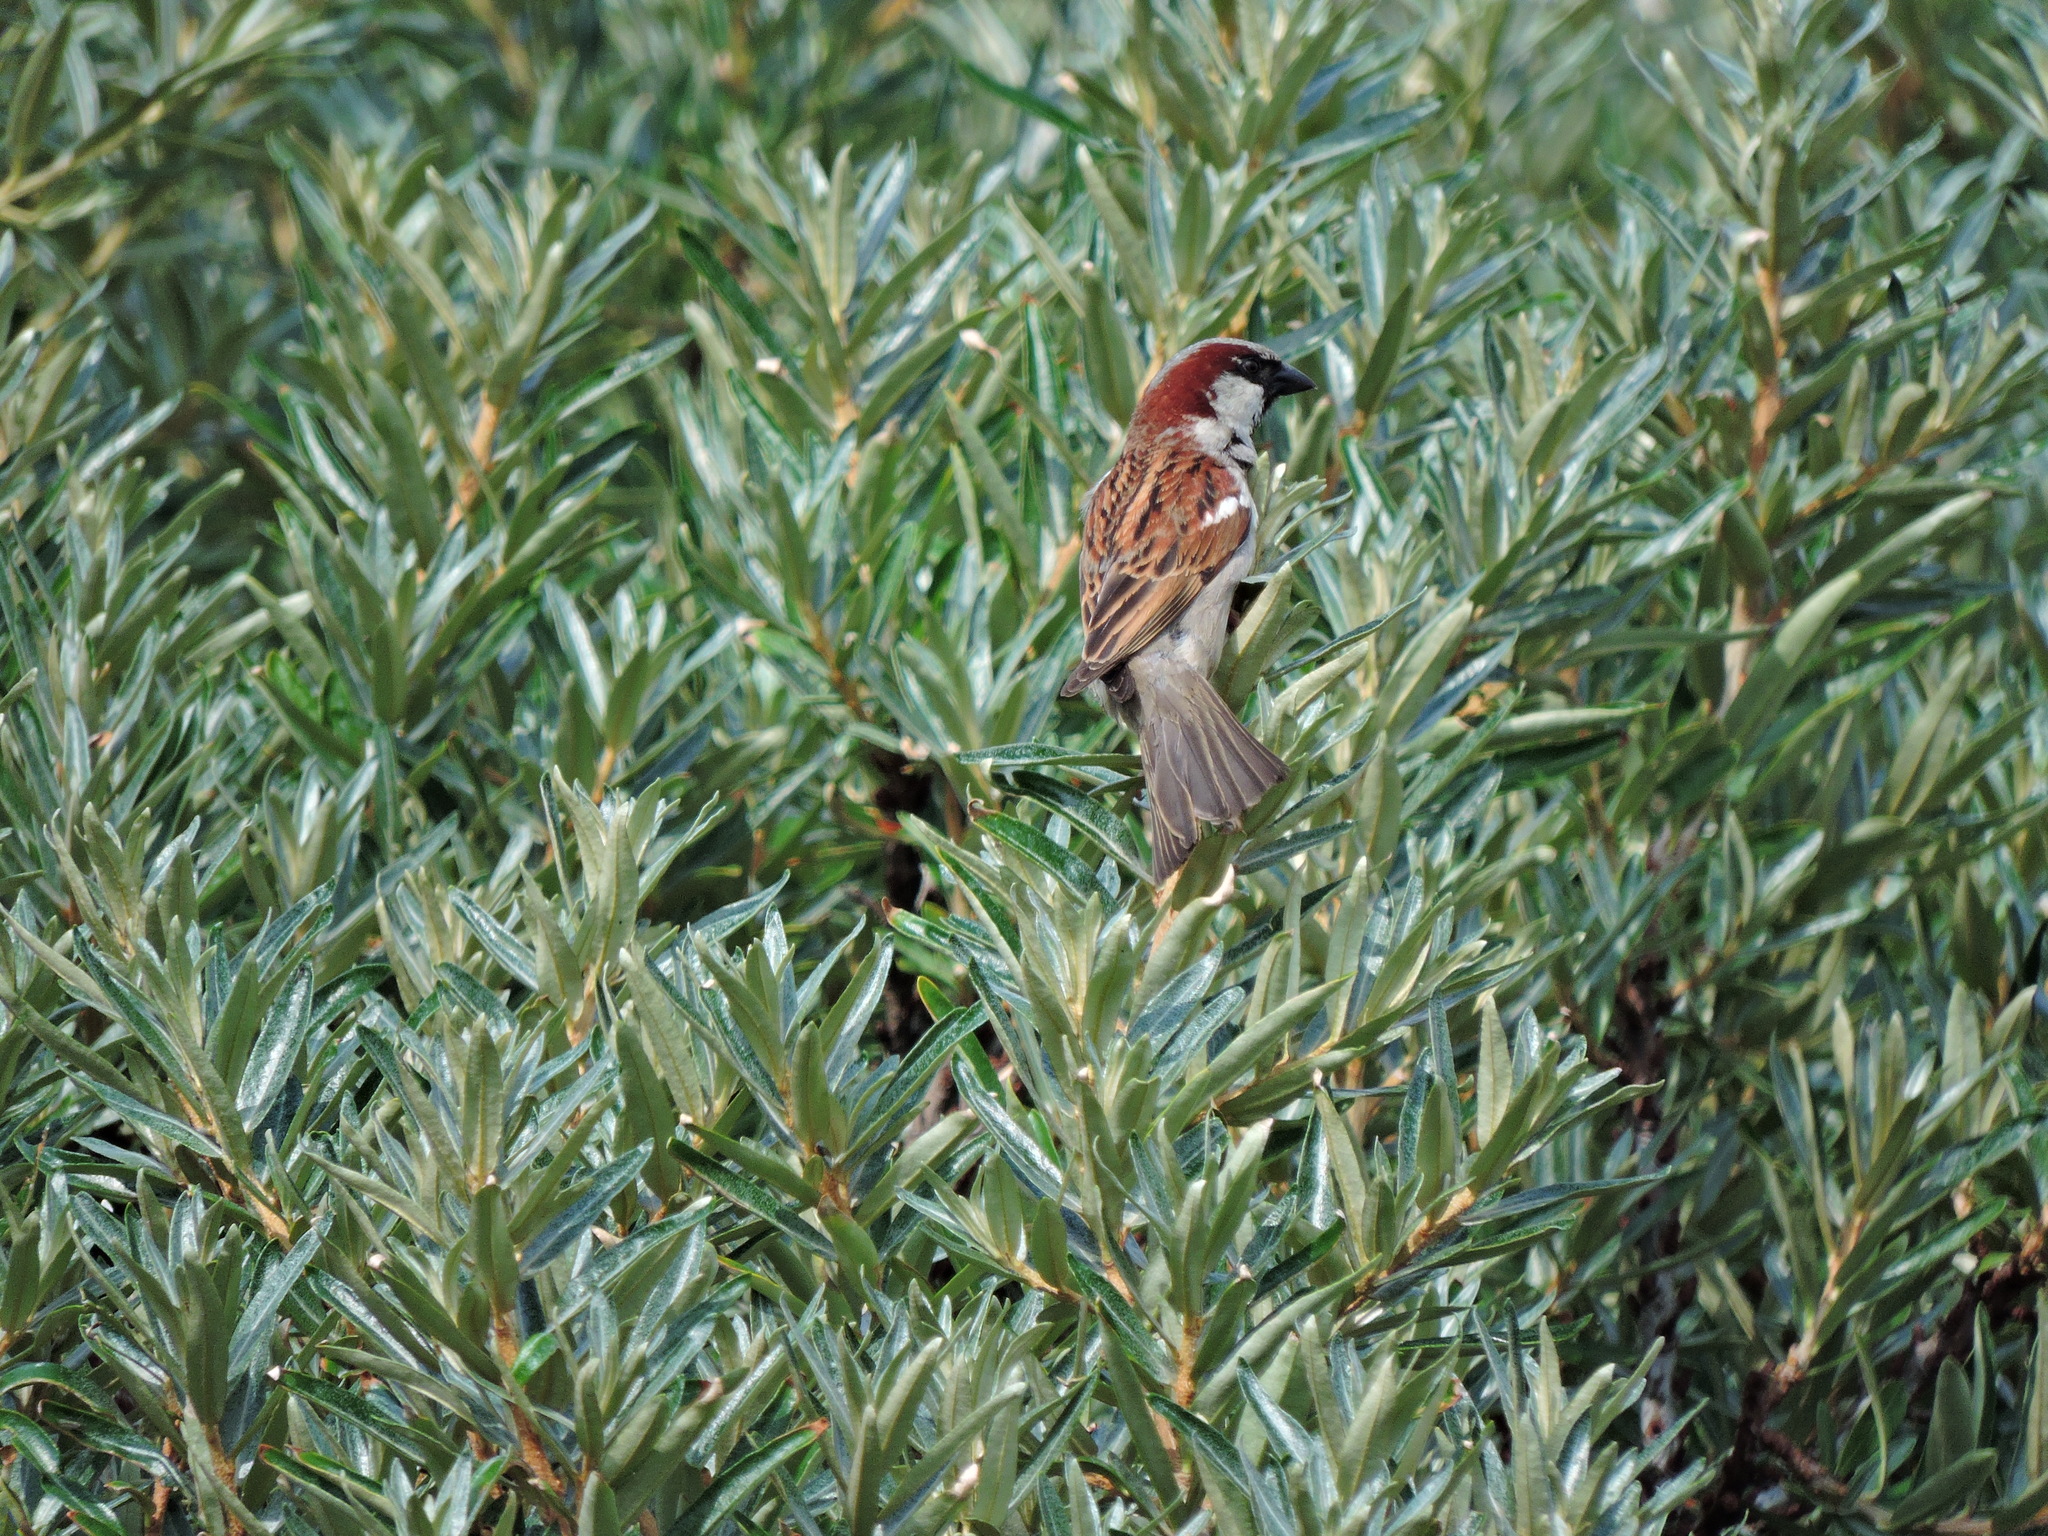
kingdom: Animalia
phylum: Chordata
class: Aves
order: Passeriformes
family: Passeridae
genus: Passer
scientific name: Passer domesticus
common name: House sparrow
